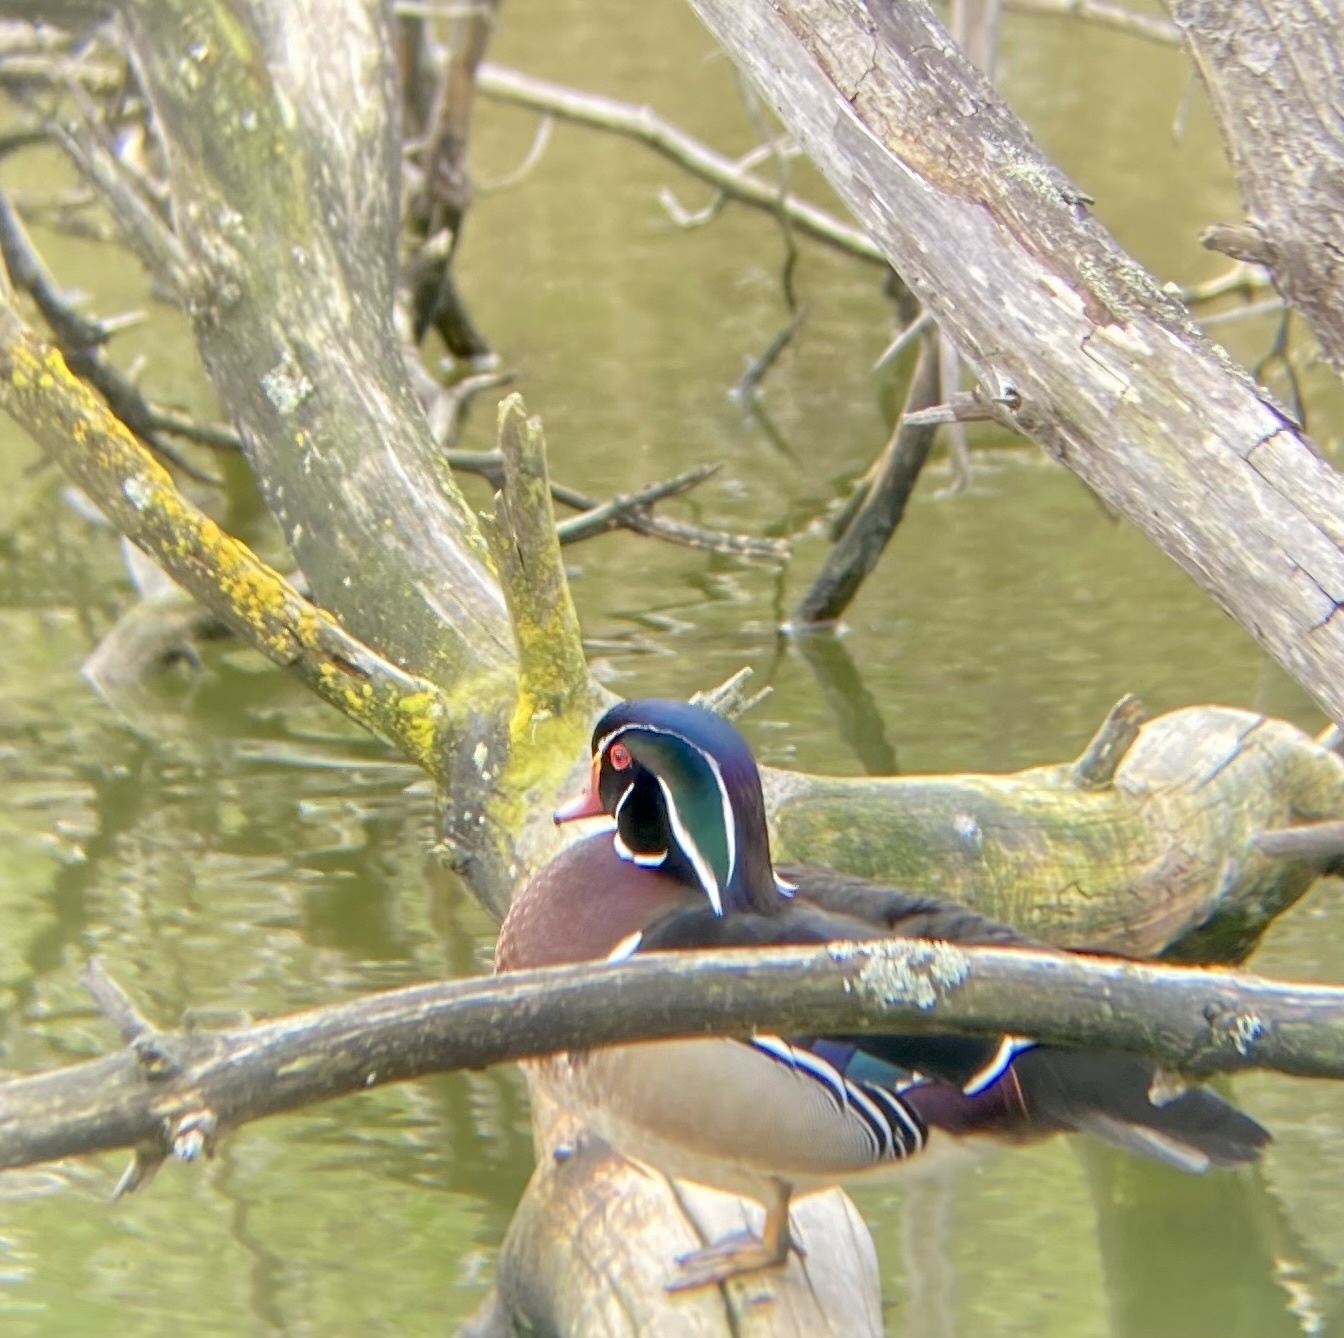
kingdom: Animalia
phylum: Chordata
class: Aves
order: Anseriformes
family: Anatidae
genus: Aix
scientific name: Aix sponsa
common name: Wood duck
